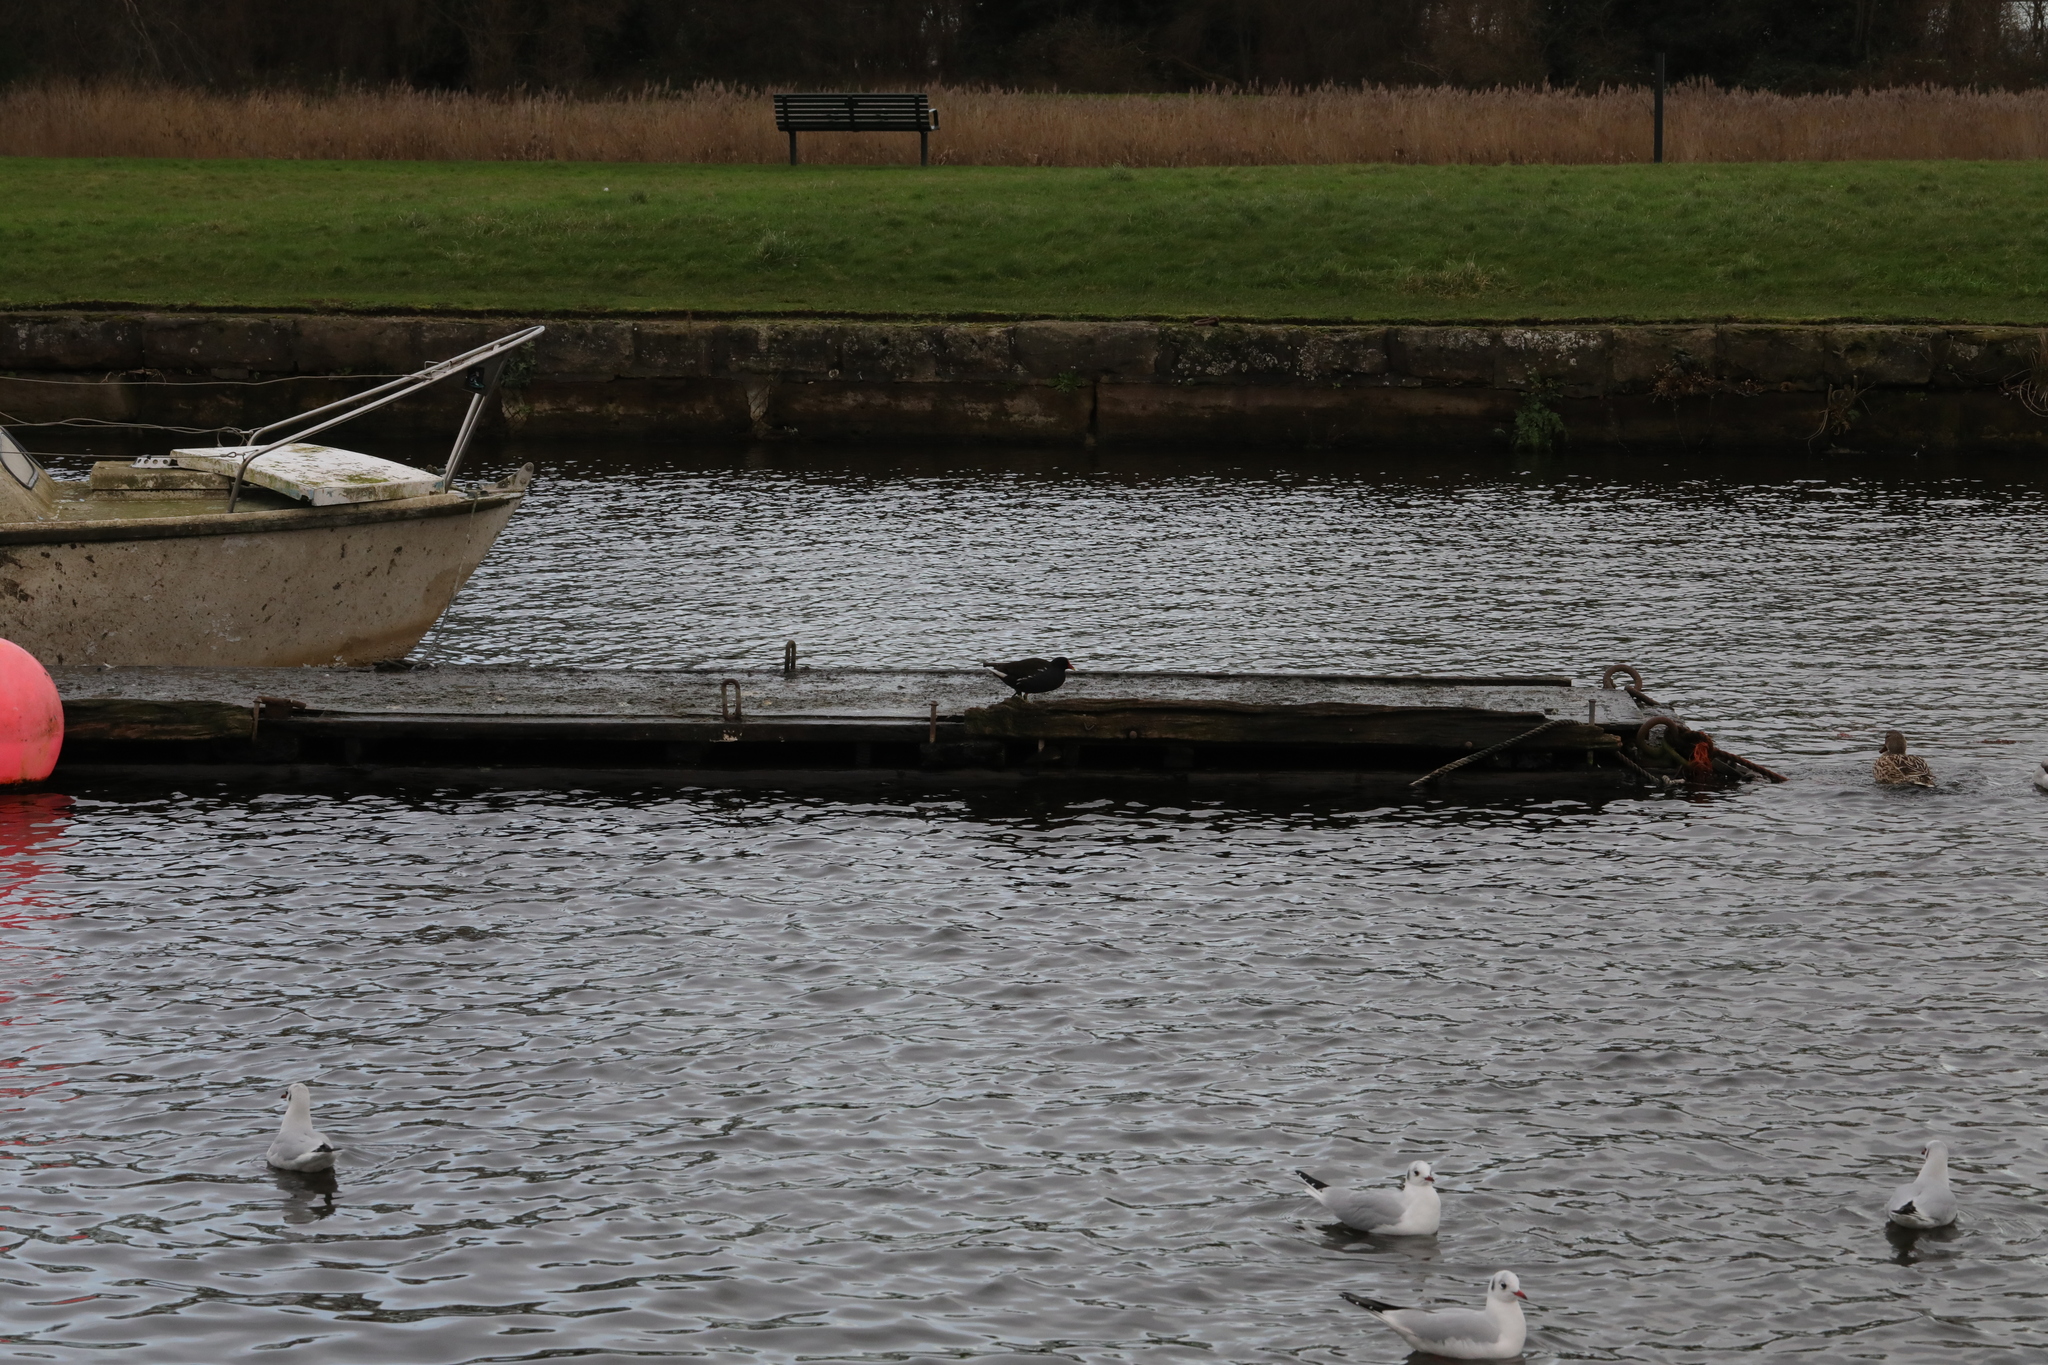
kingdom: Animalia
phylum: Chordata
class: Aves
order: Gruiformes
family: Rallidae
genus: Gallinula
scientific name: Gallinula chloropus
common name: Common moorhen
